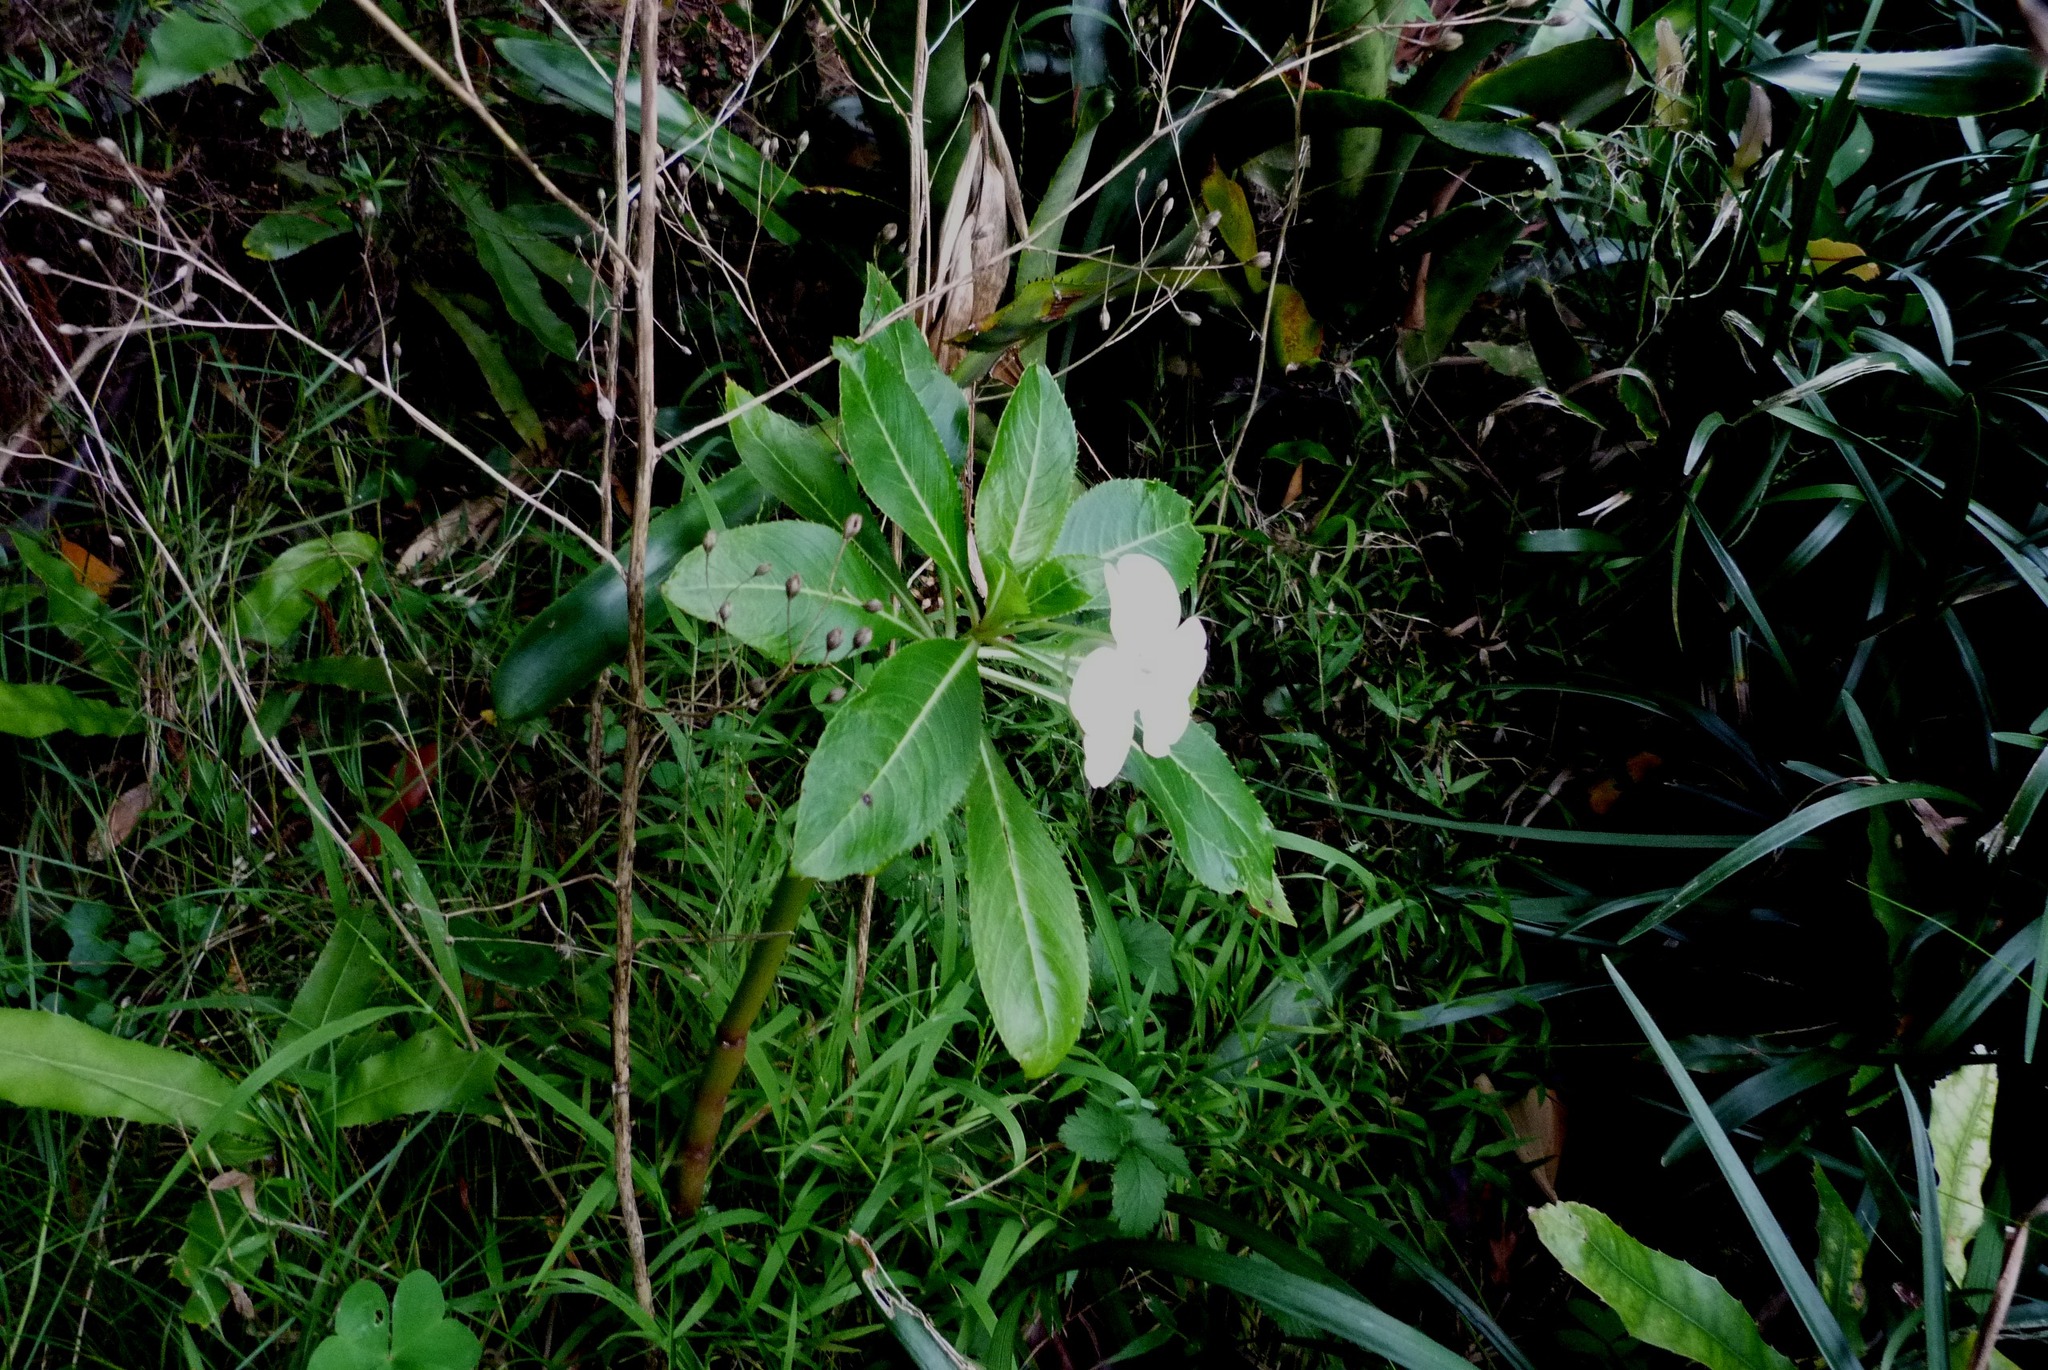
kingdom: Plantae
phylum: Tracheophyta
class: Magnoliopsida
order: Ericales
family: Balsaminaceae
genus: Impatiens
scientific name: Impatiens sodenii
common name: Oliver's touch-me-not
